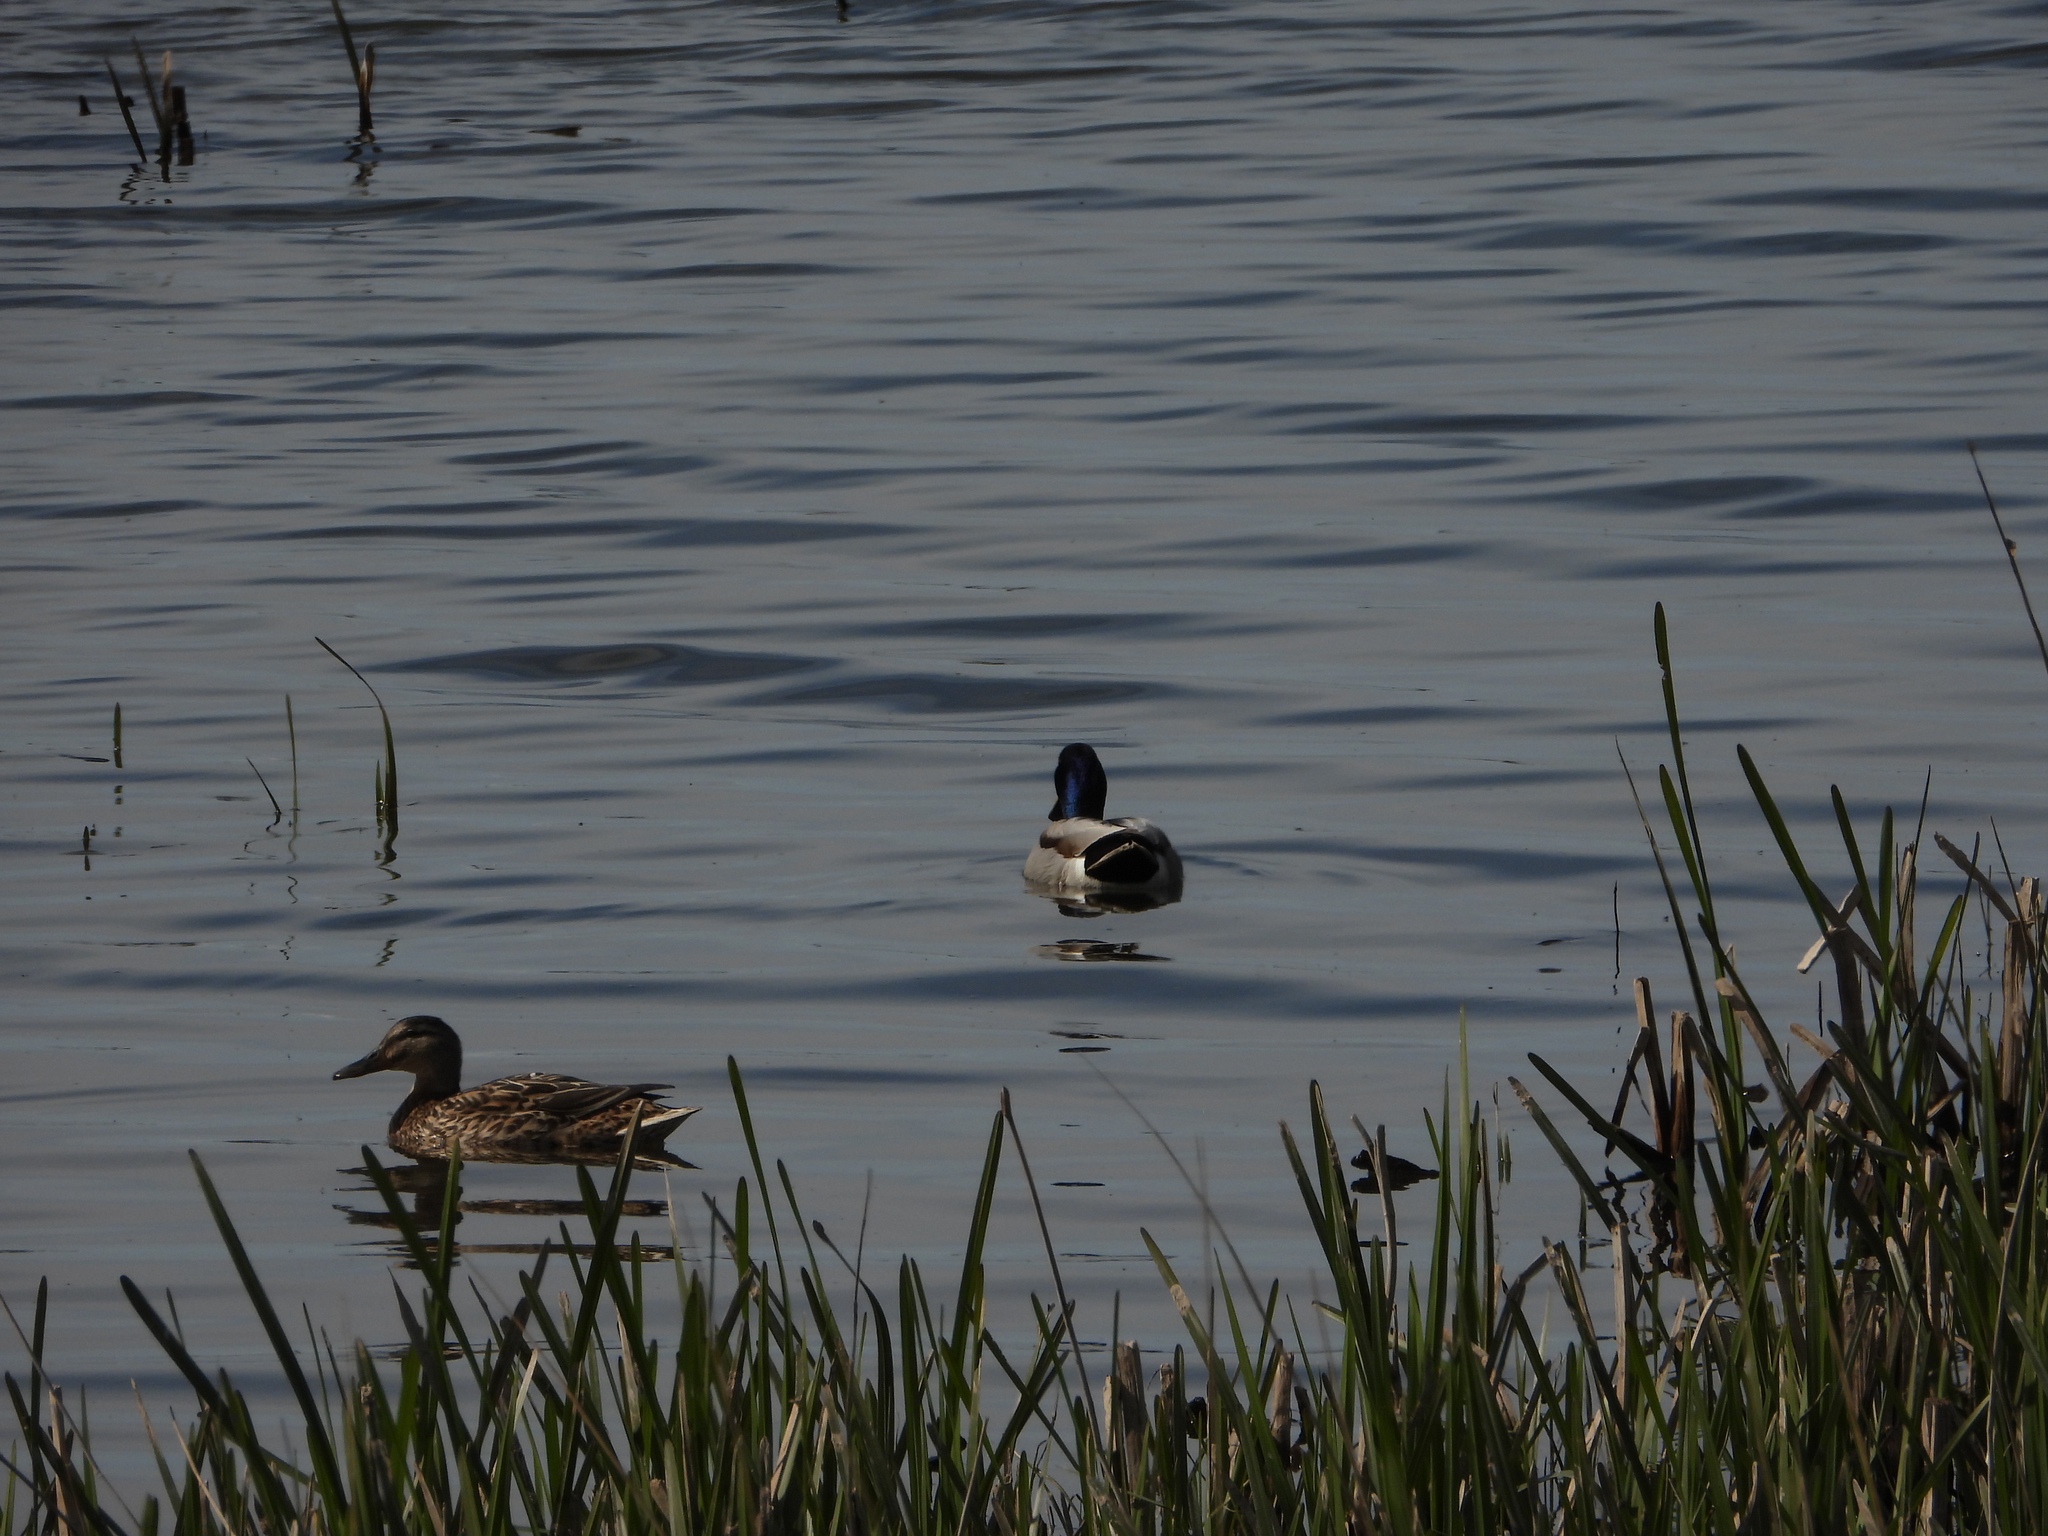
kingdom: Animalia
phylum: Chordata
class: Aves
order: Anseriformes
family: Anatidae
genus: Anas
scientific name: Anas platyrhynchos
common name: Mallard
